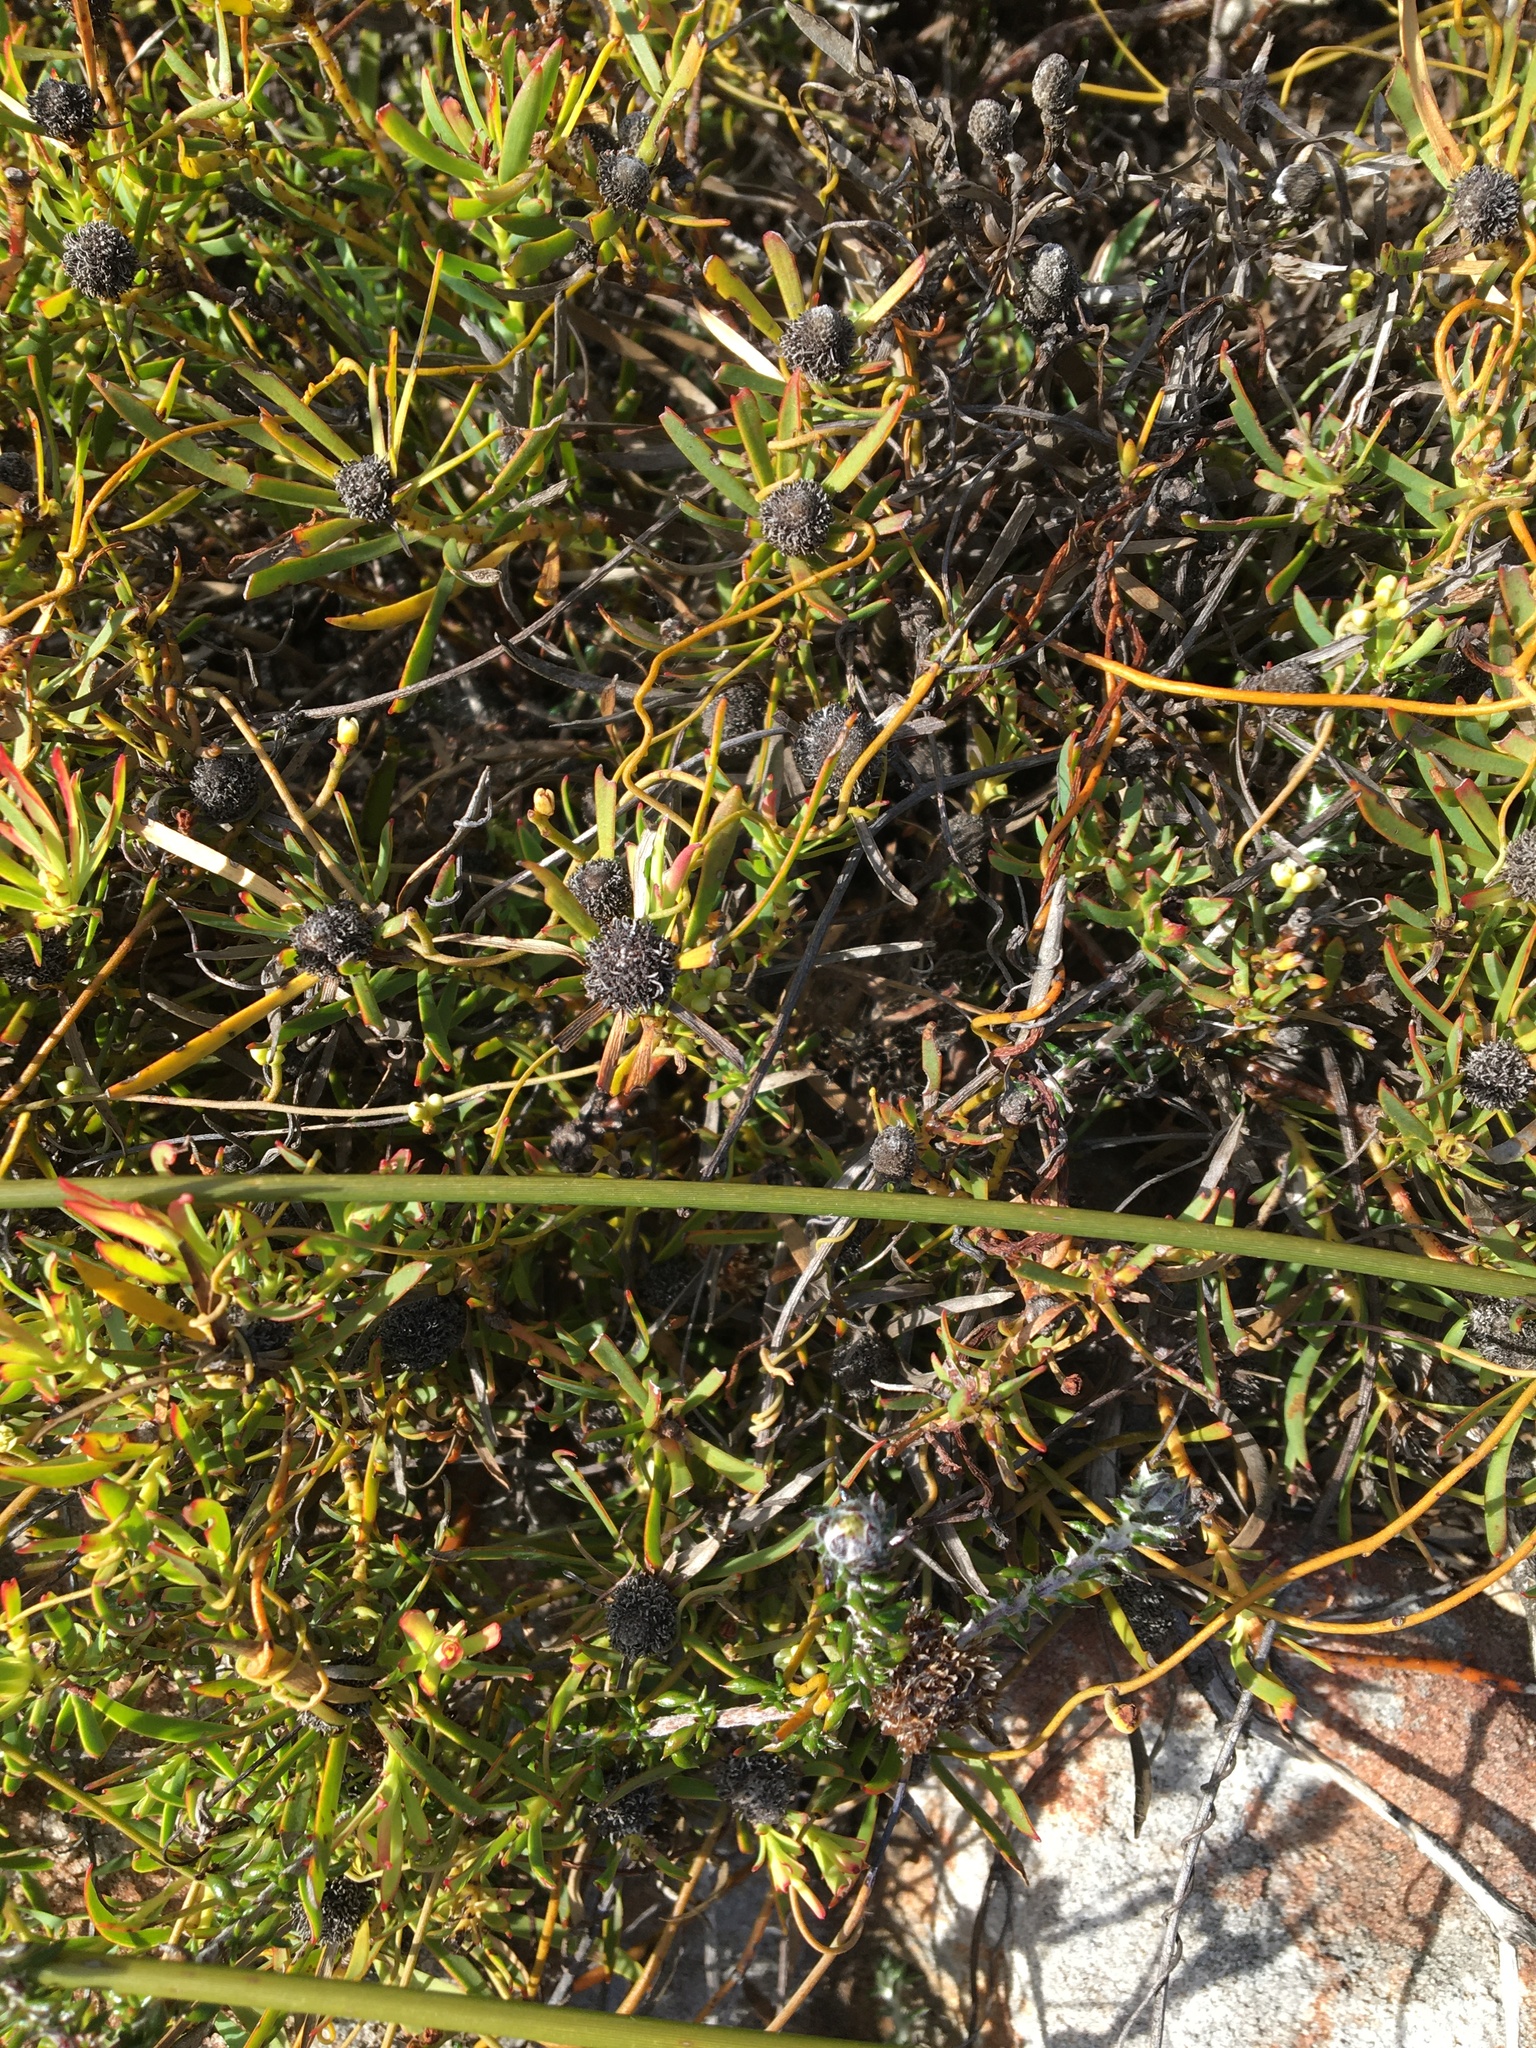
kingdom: Plantae
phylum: Tracheophyta
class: Magnoliopsida
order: Proteales
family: Proteaceae
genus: Leucadendron
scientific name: Leucadendron salignum
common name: Common sunshine conebush
